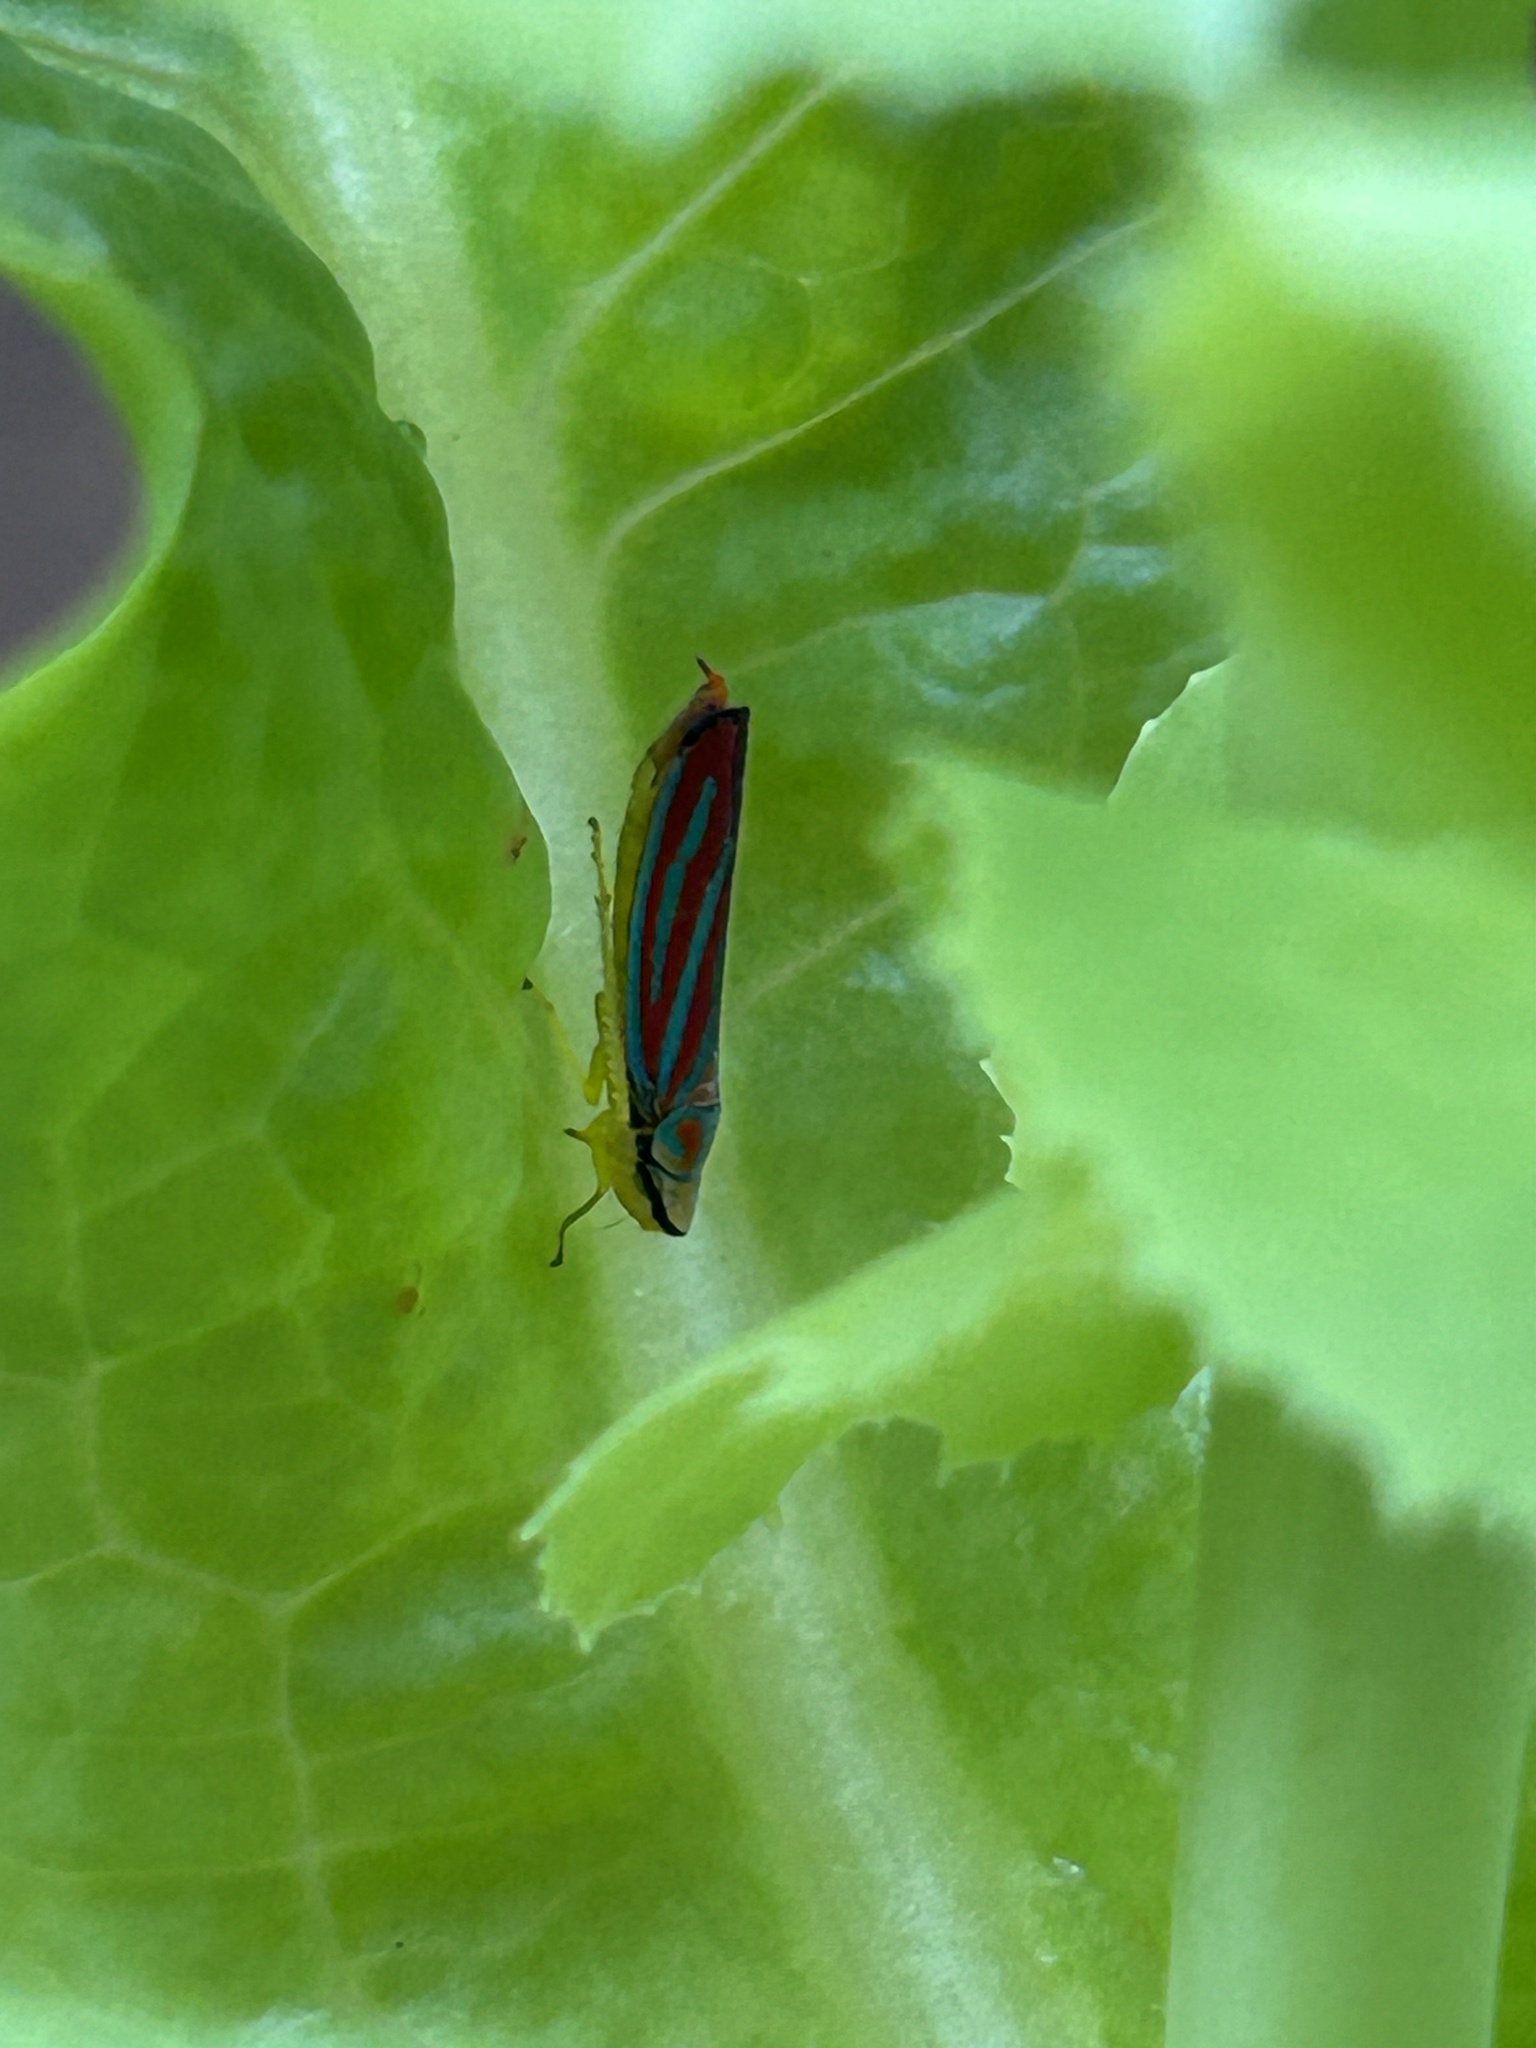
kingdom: Animalia
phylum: Arthropoda
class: Insecta
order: Hemiptera
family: Cicadellidae
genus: Graphocephala
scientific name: Graphocephala coccinea
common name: Candy-striped leafhopper
